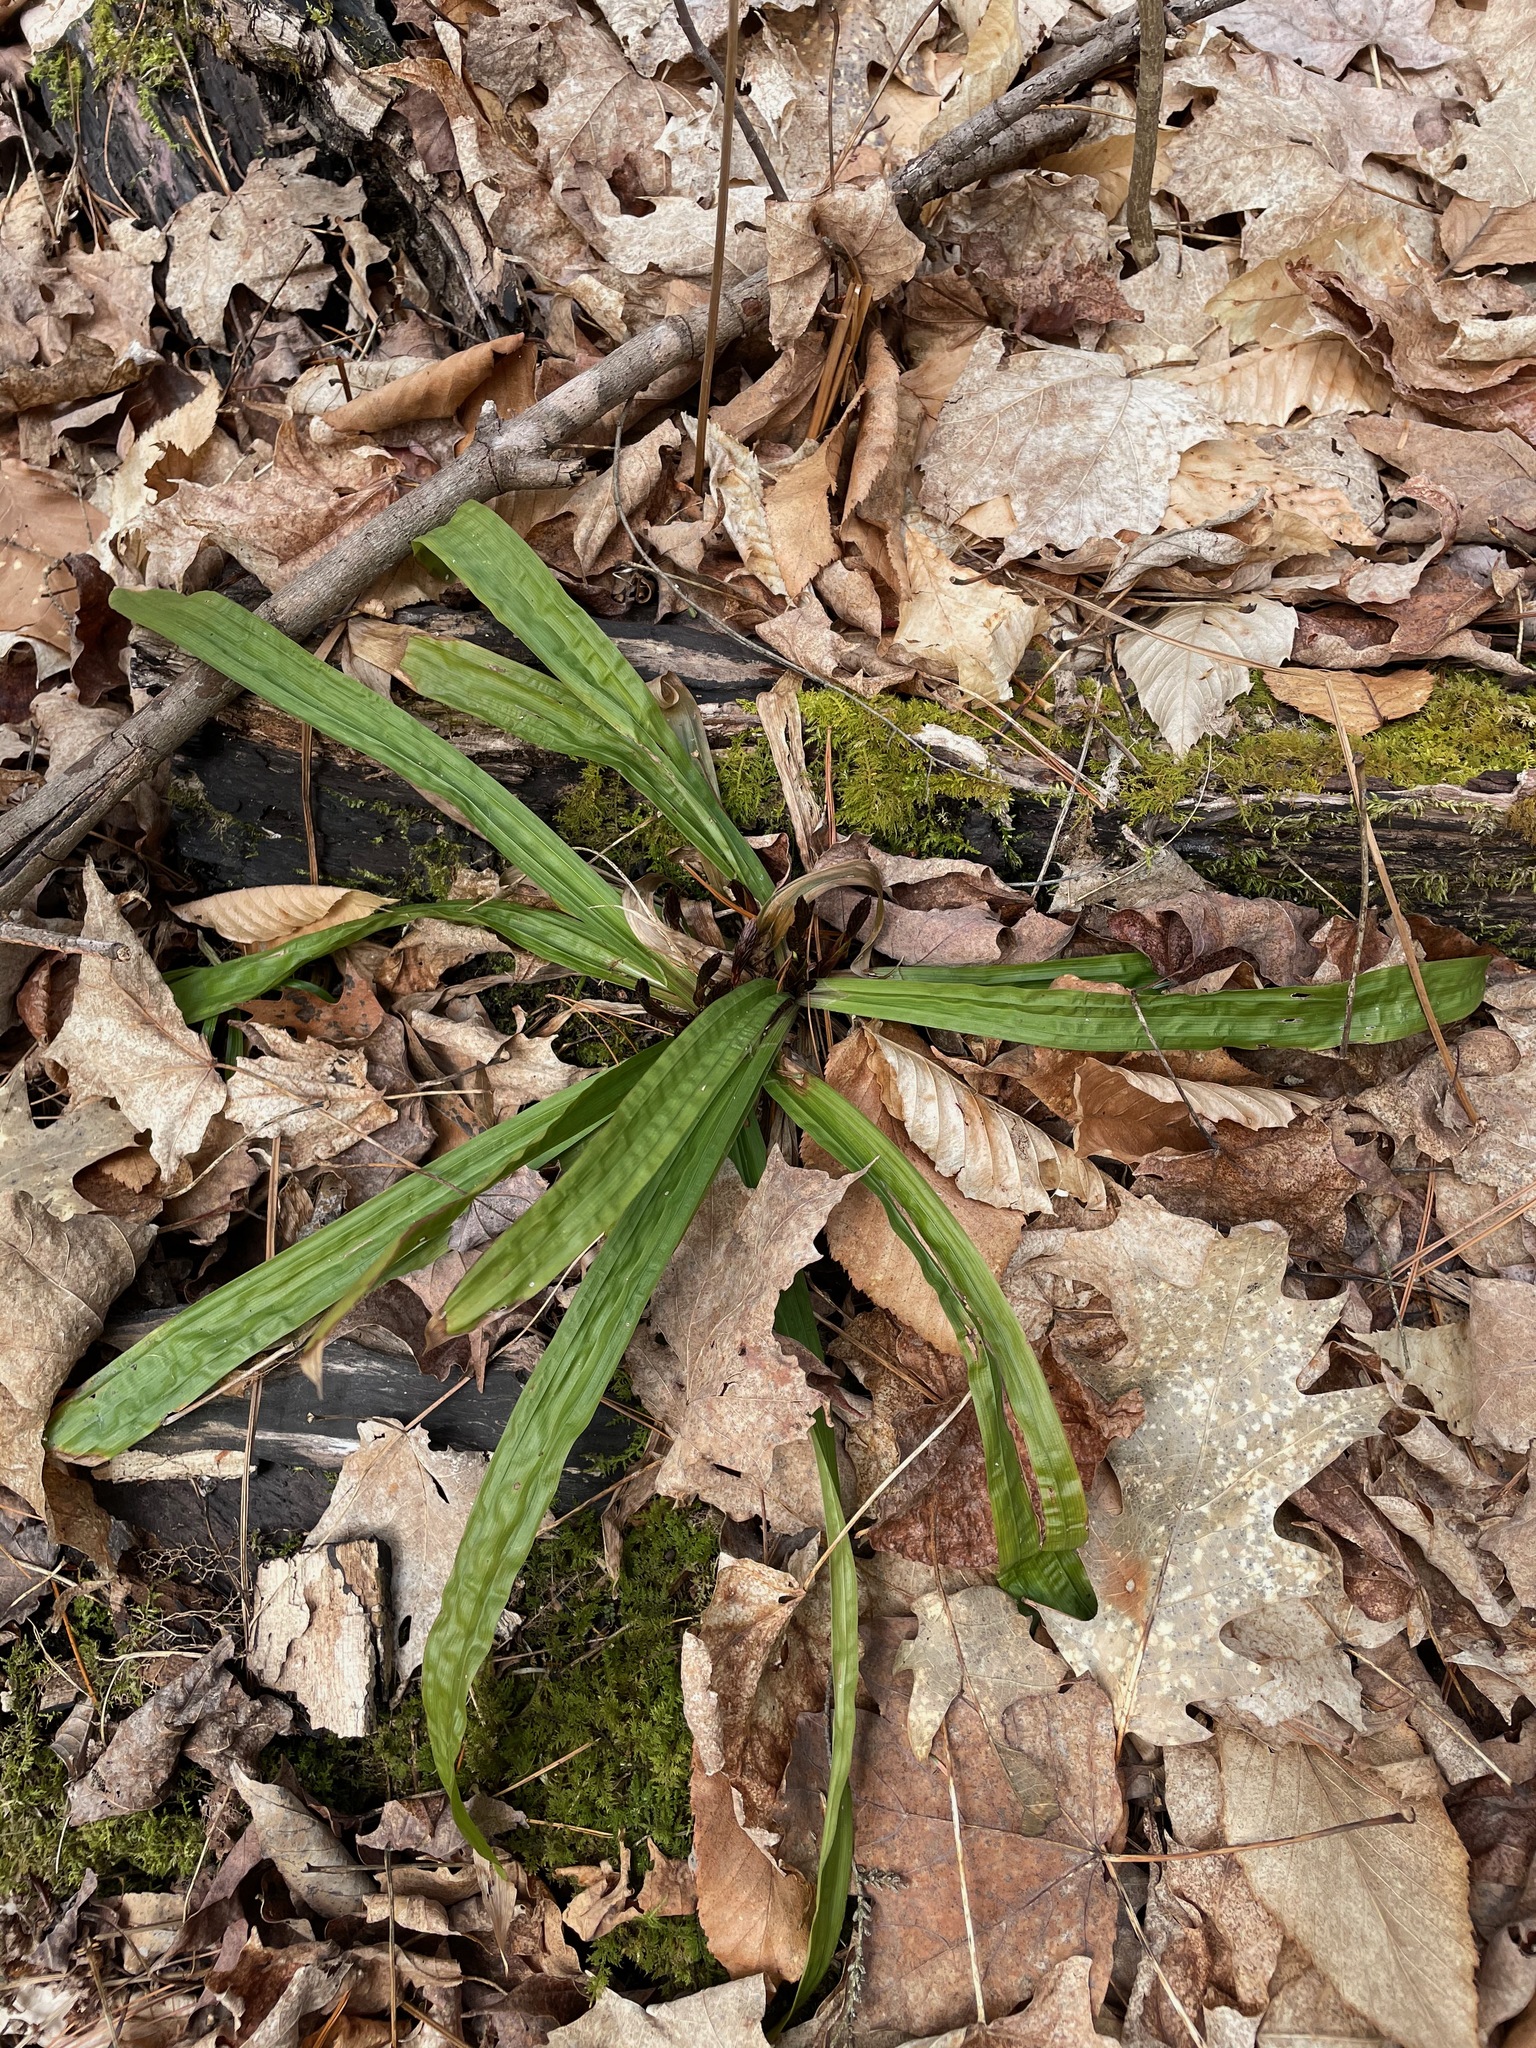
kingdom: Plantae
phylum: Tracheophyta
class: Liliopsida
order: Poales
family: Cyperaceae
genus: Carex
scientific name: Carex plantaginea
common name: Plantain-leaved sedge
